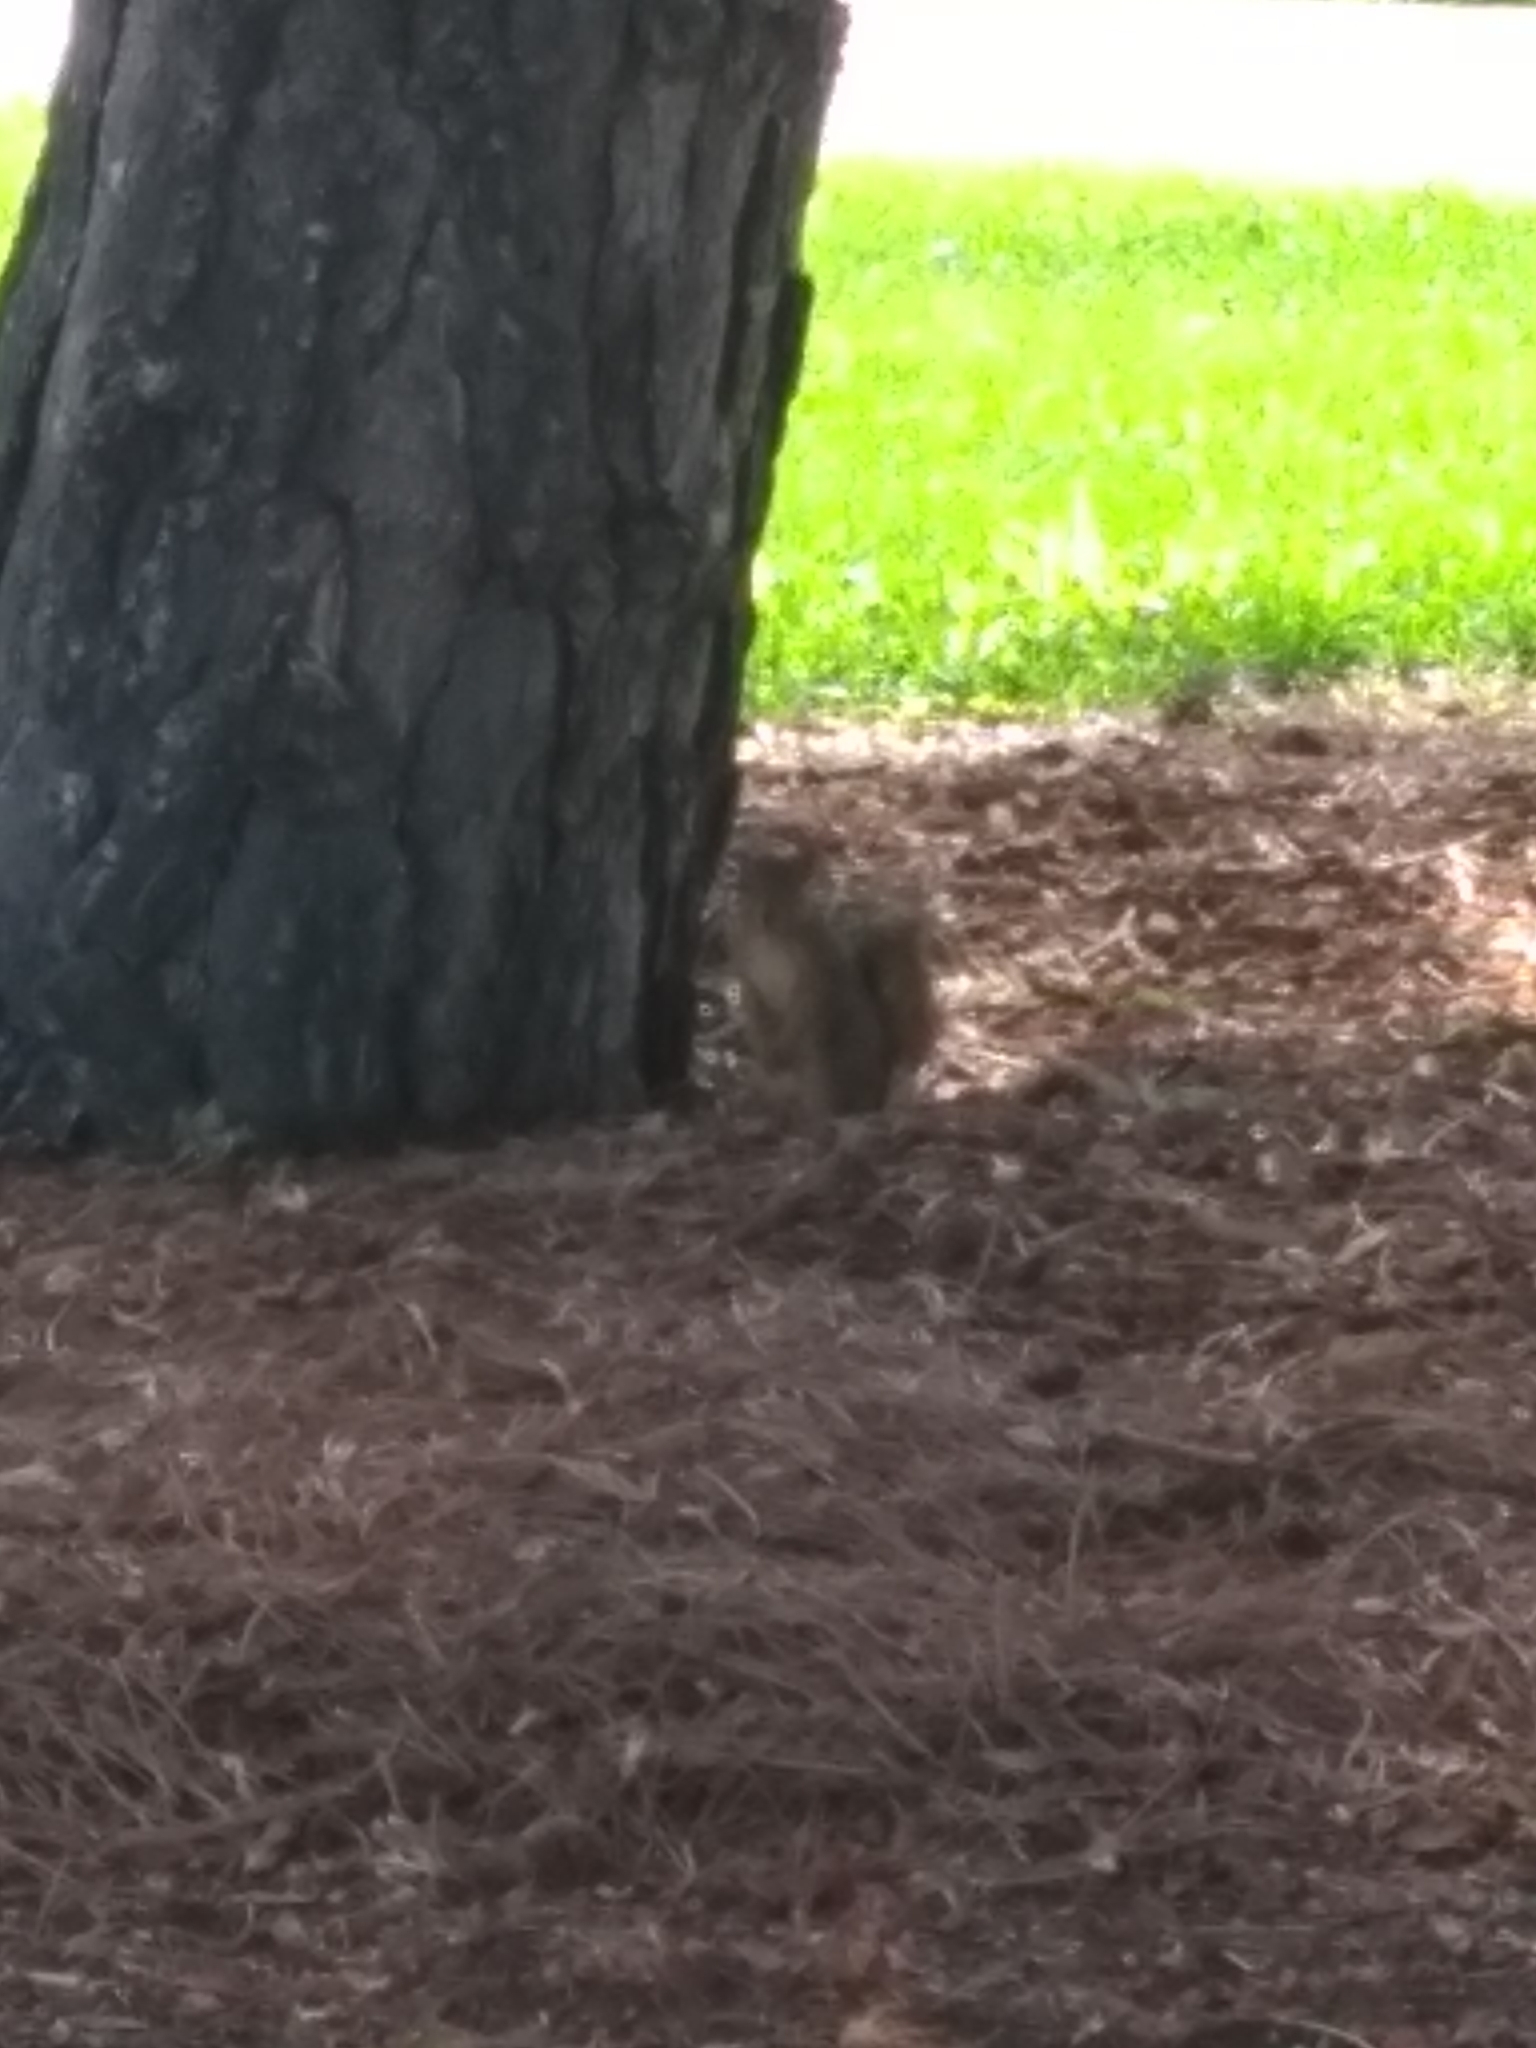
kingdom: Animalia
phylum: Chordata
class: Mammalia
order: Rodentia
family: Sciuridae
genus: Sciurus
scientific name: Sciurus niger
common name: Fox squirrel
